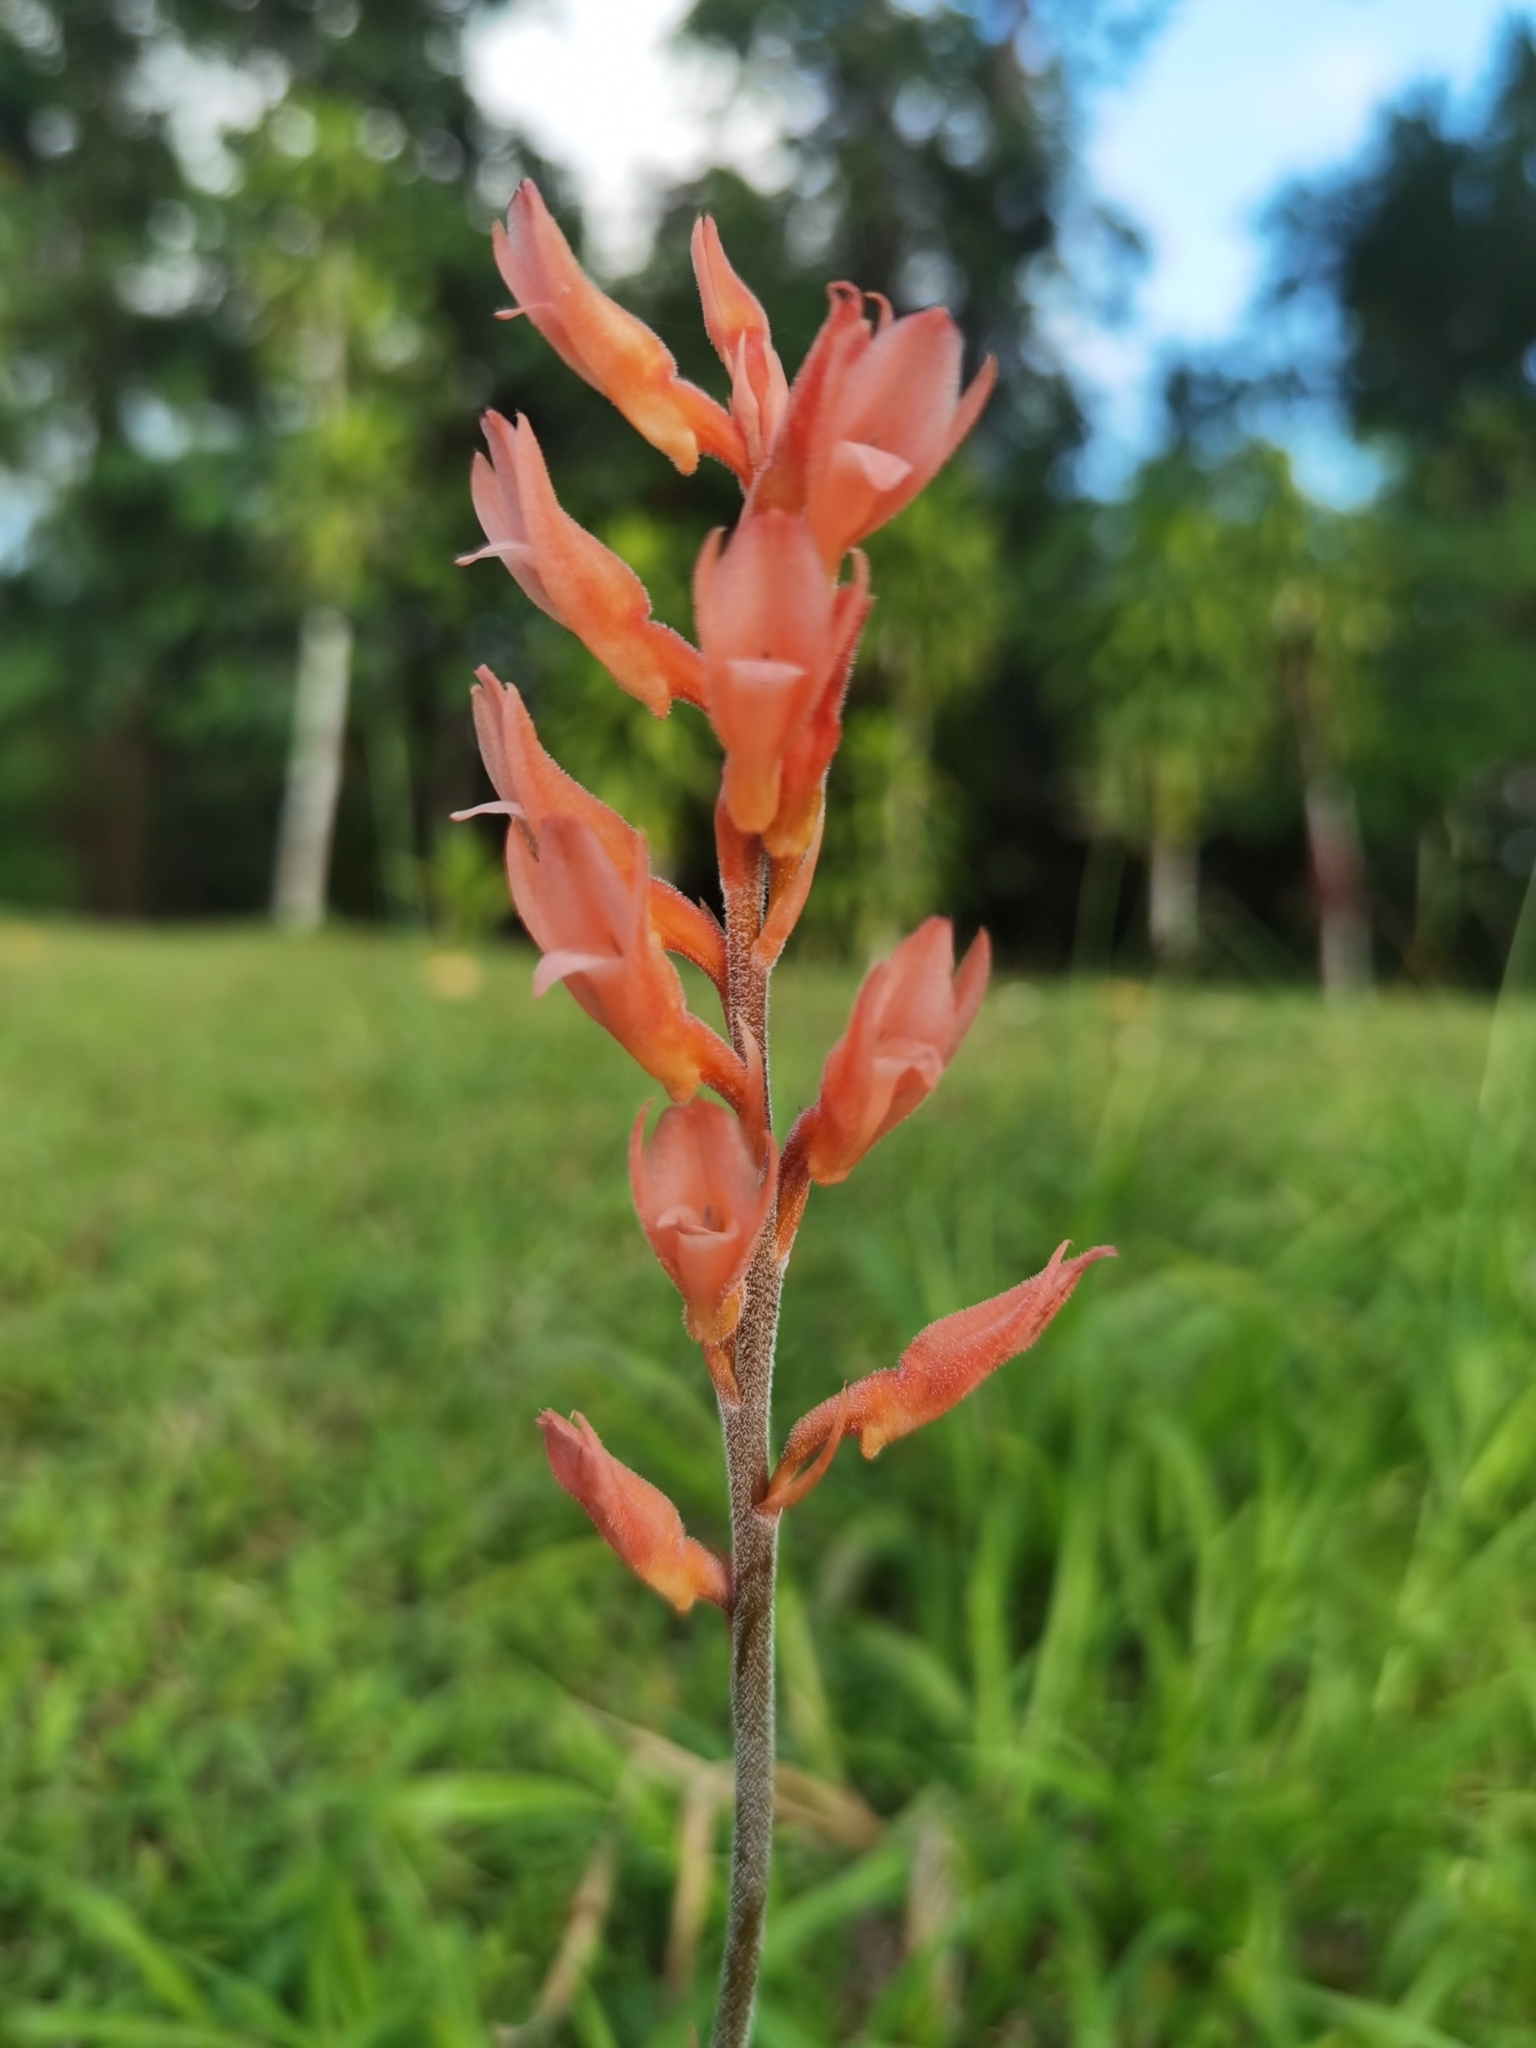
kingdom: Plantae
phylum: Tracheophyta
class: Liliopsida
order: Asparagales
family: Orchidaceae
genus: Sacoila
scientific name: Sacoila lanceolata
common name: Leafless beaked ladiestresses
